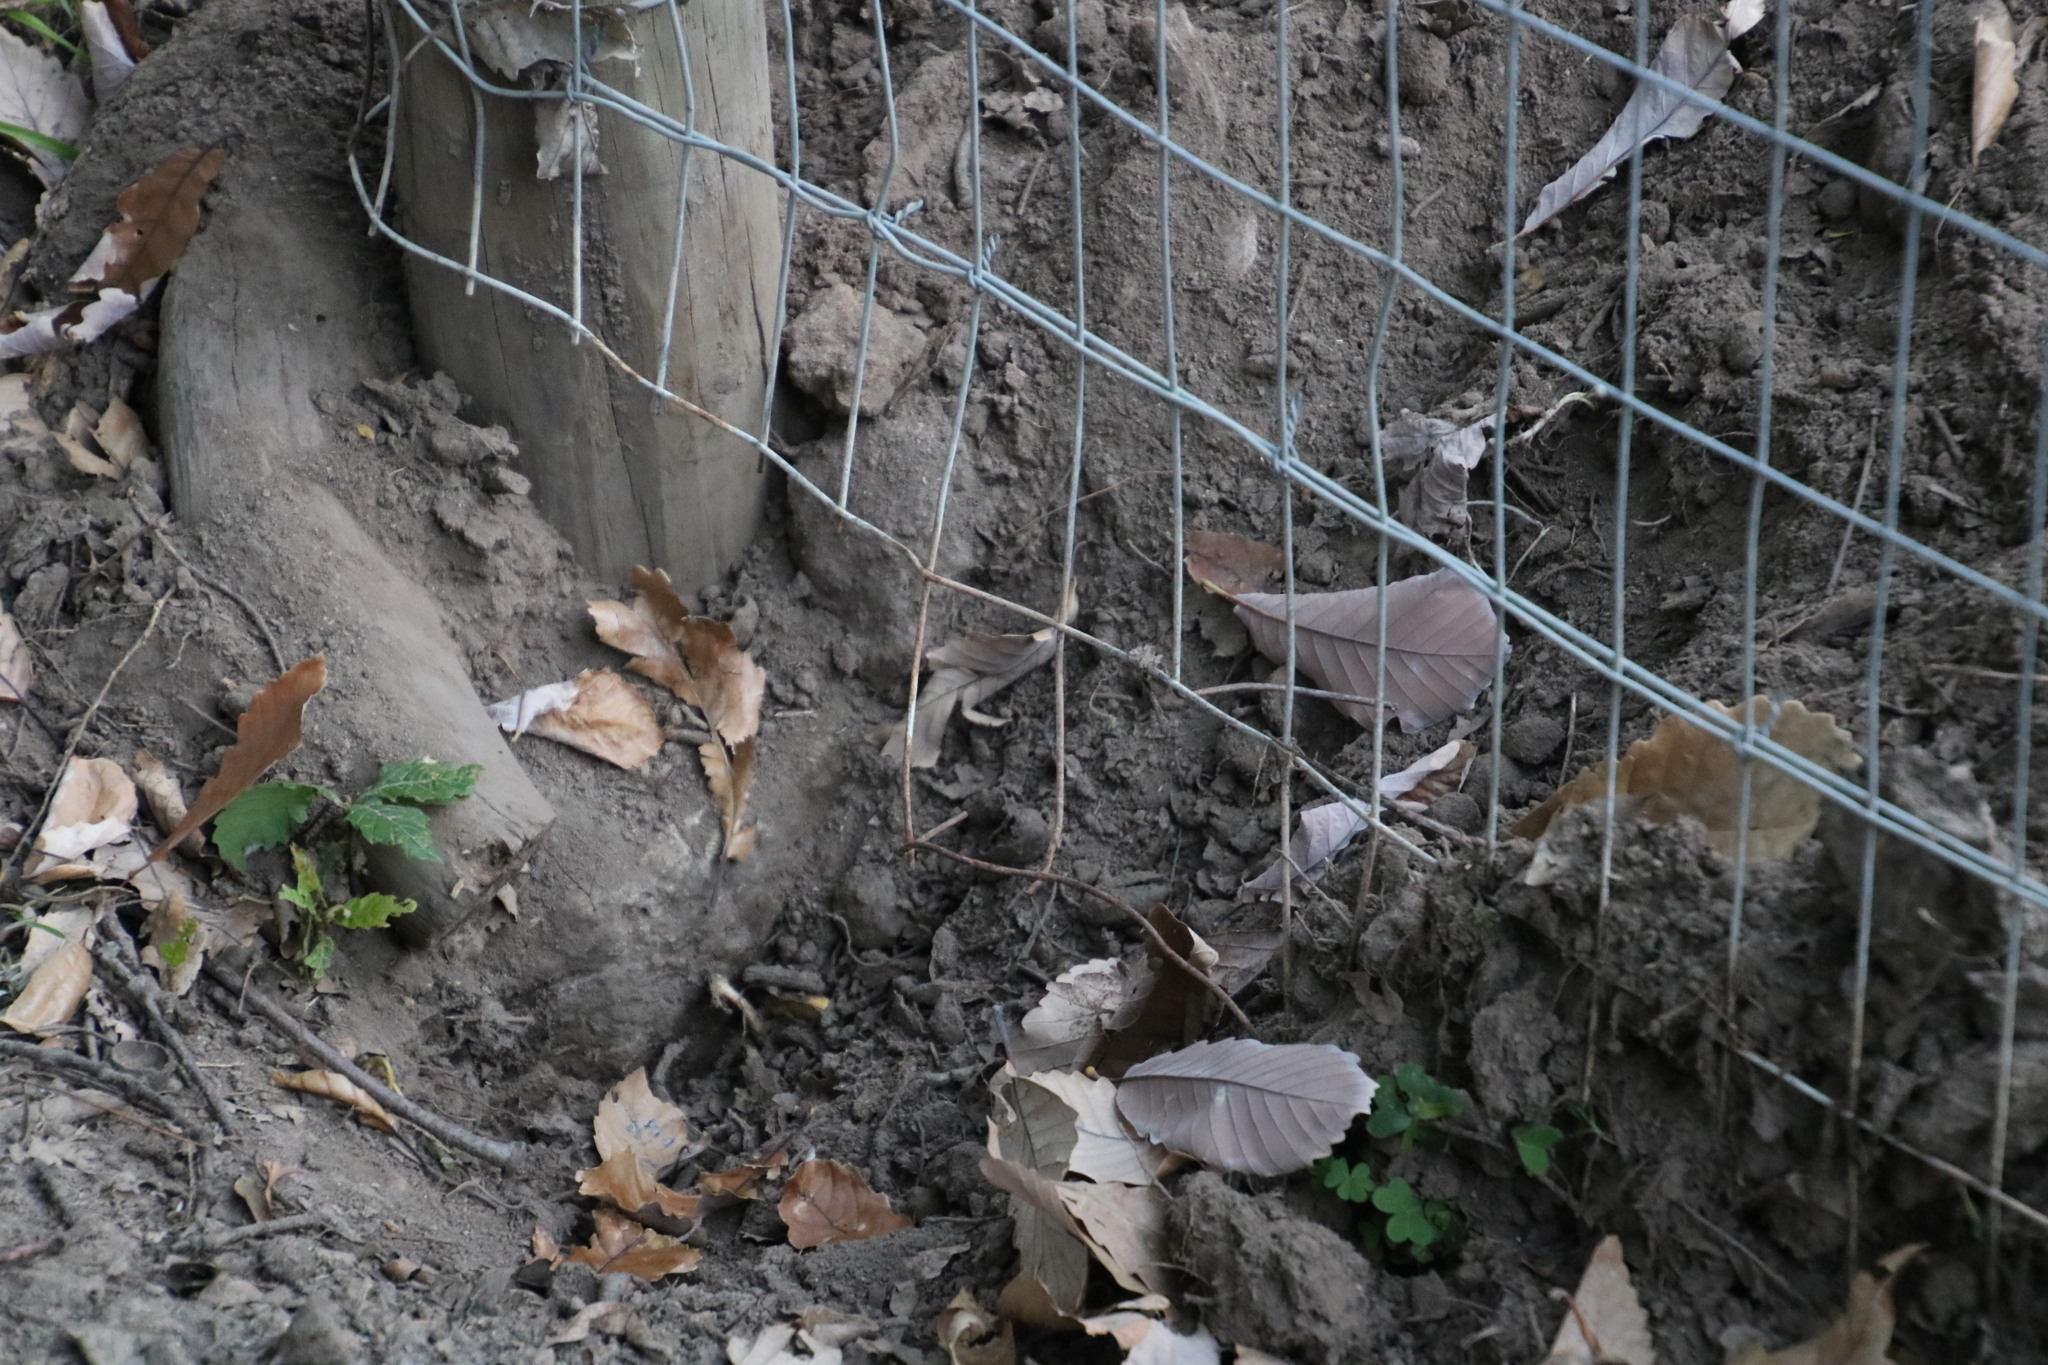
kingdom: Animalia
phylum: Chordata
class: Mammalia
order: Rodentia
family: Hystricidae
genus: Hystrix
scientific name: Hystrix africaeaustralis
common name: Cape porcupine
